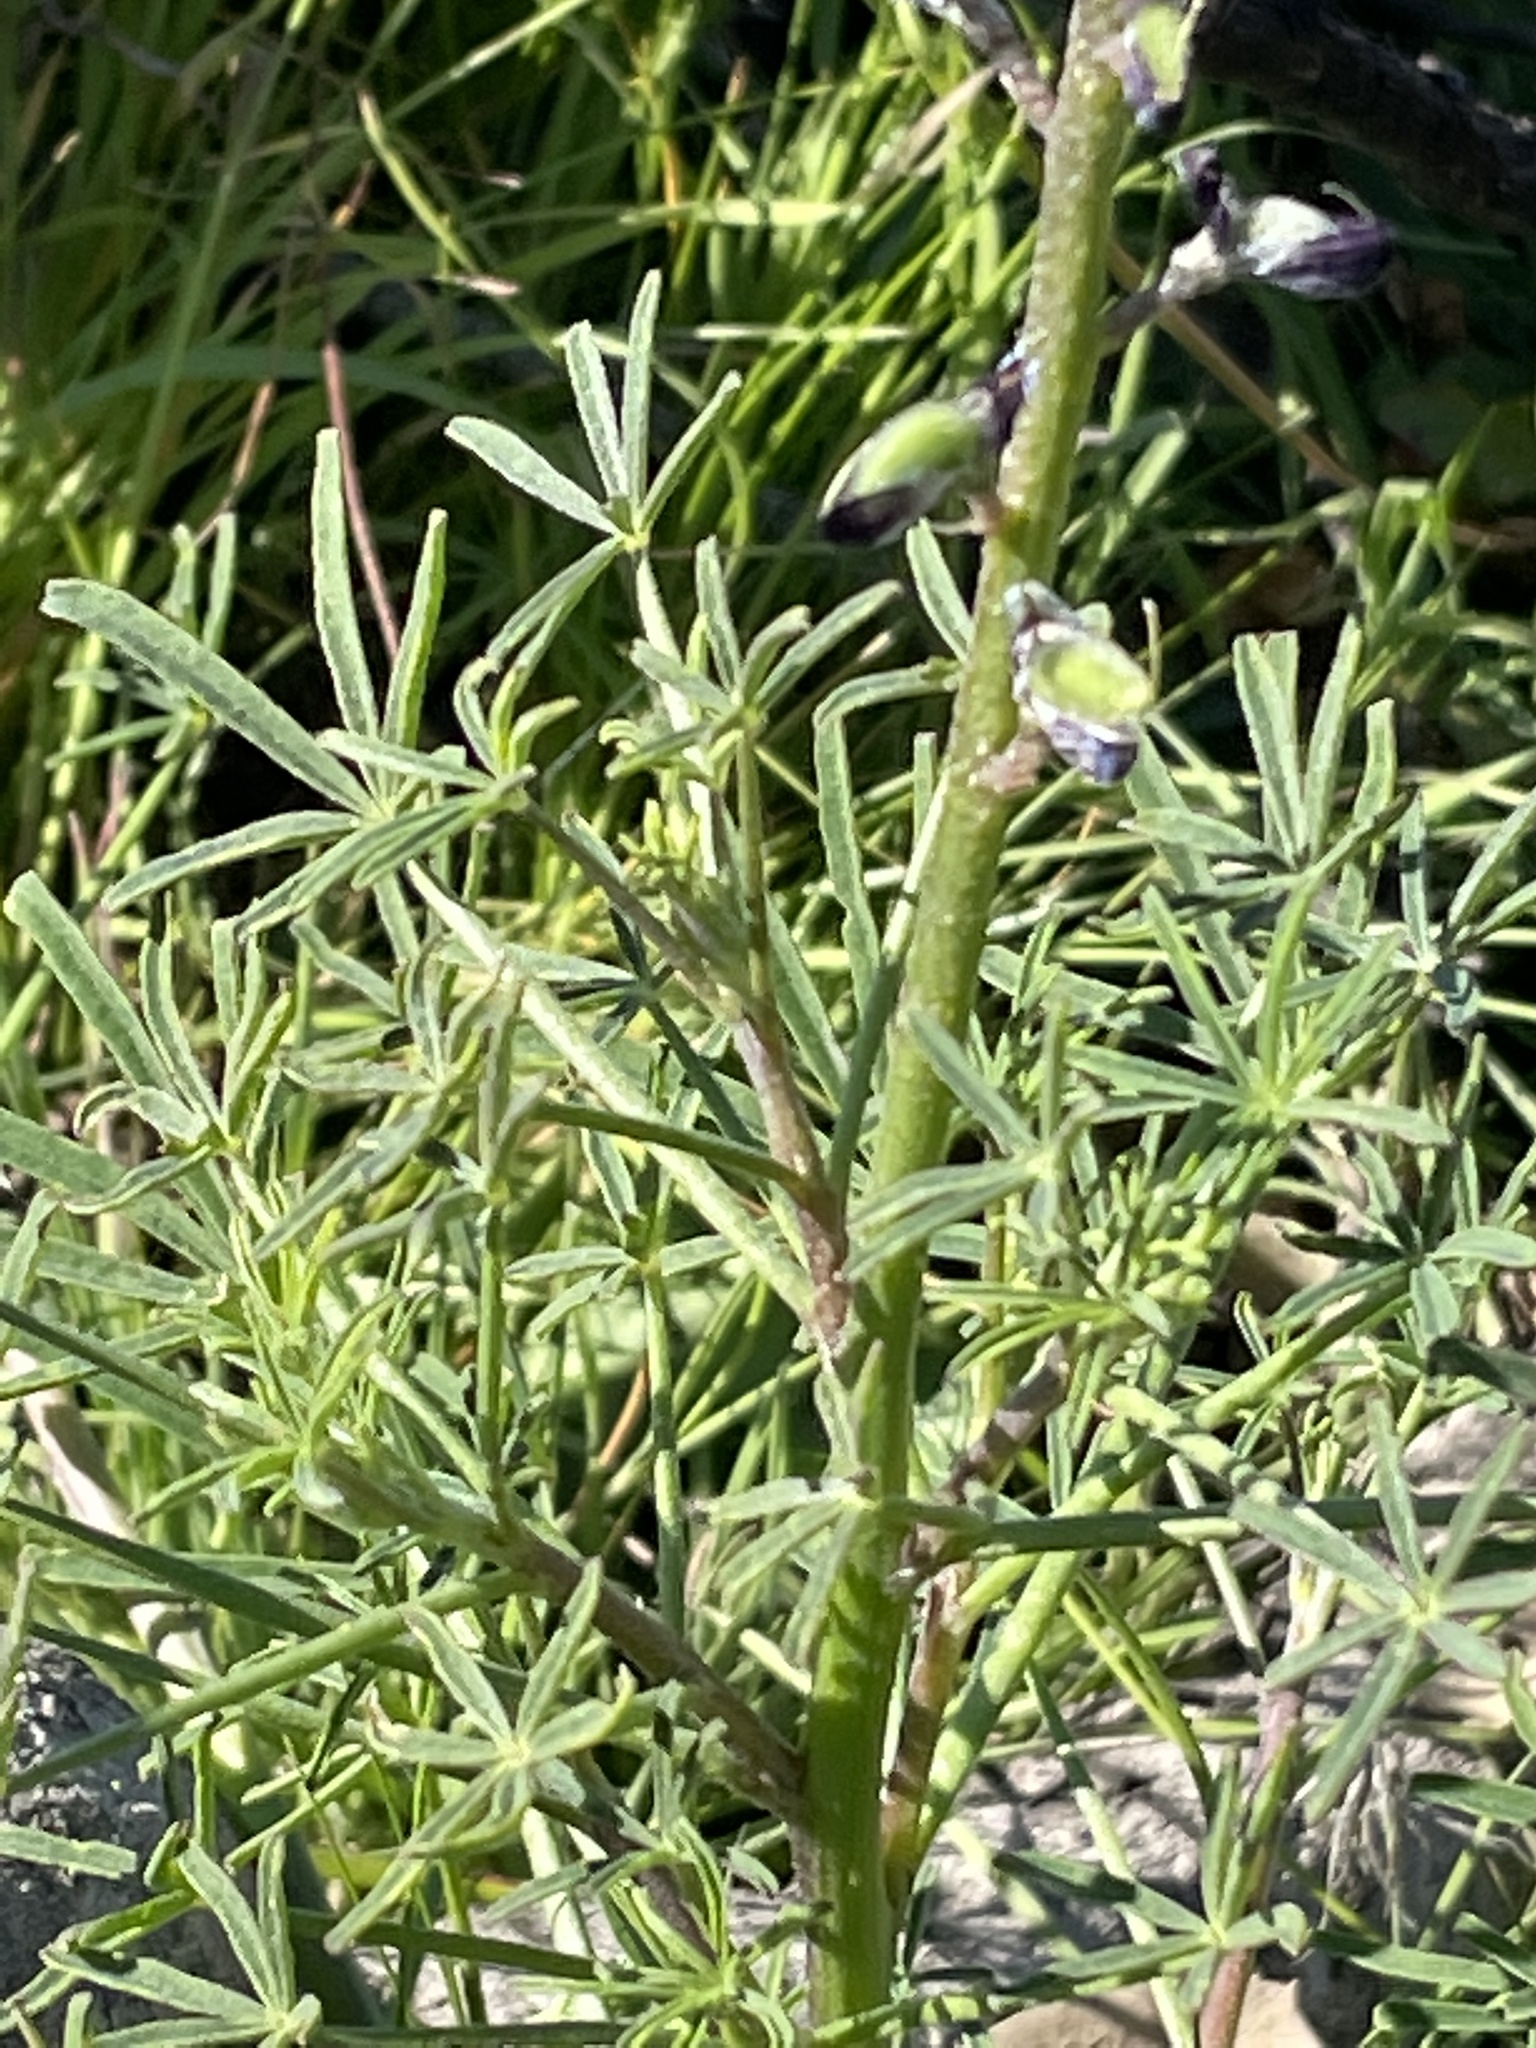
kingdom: Plantae
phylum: Tracheophyta
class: Magnoliopsida
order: Fabales
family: Fabaceae
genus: Lupinus
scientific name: Lupinus truncatus
